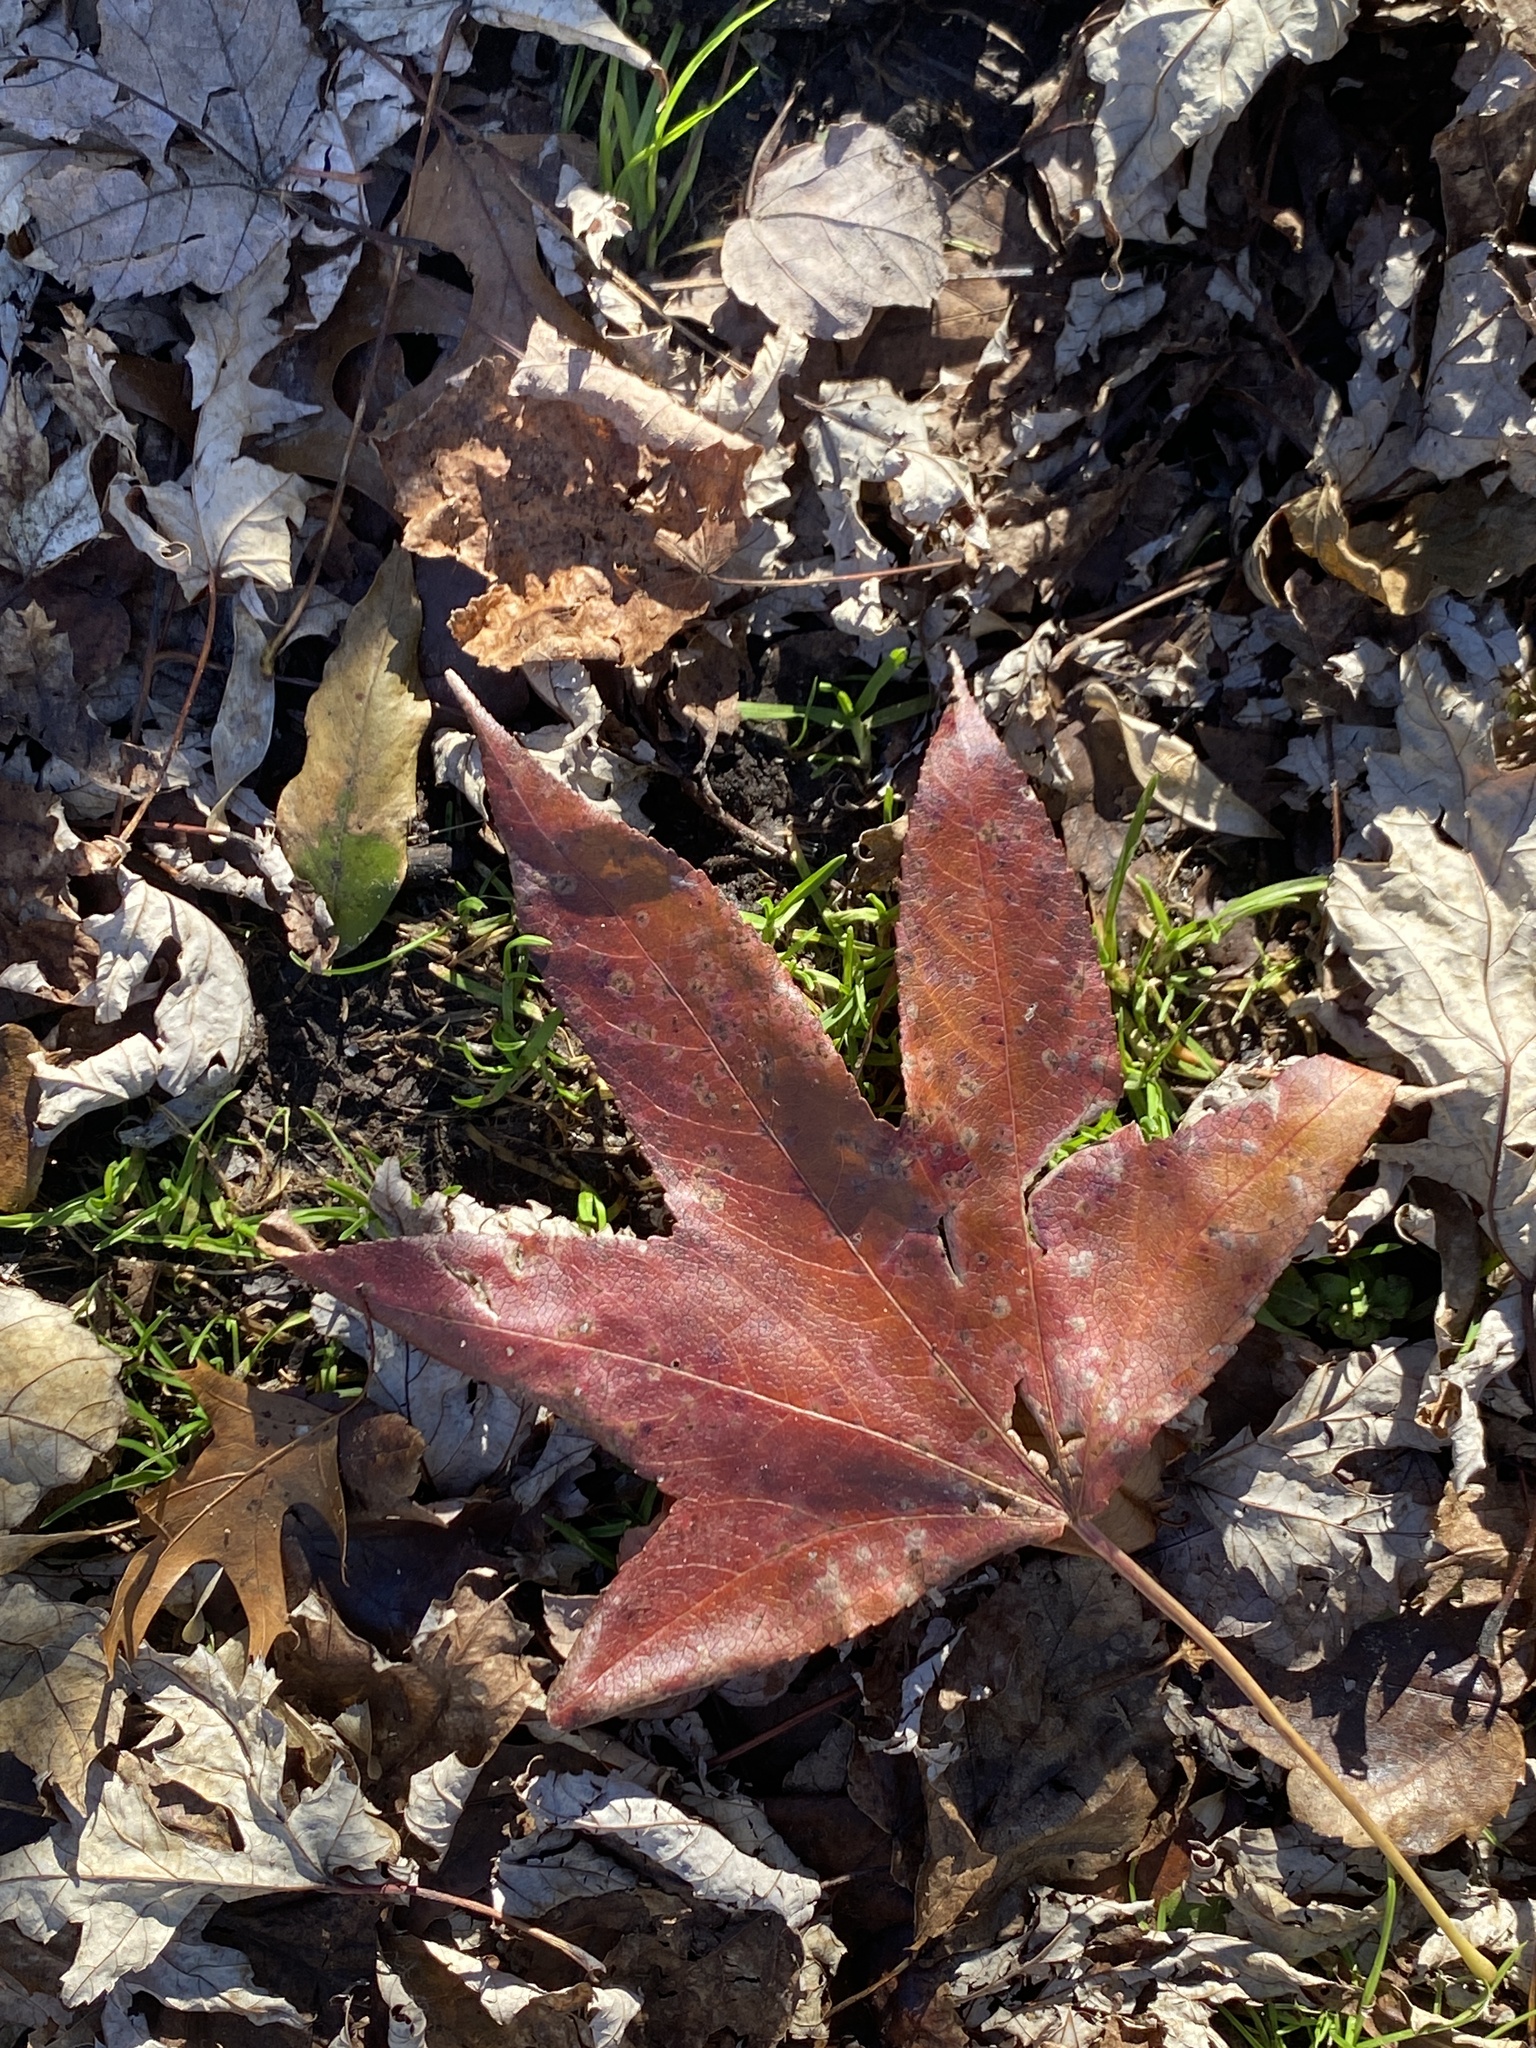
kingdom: Plantae
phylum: Tracheophyta
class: Magnoliopsida
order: Saxifragales
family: Altingiaceae
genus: Liquidambar
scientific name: Liquidambar styraciflua
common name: Sweet gum
